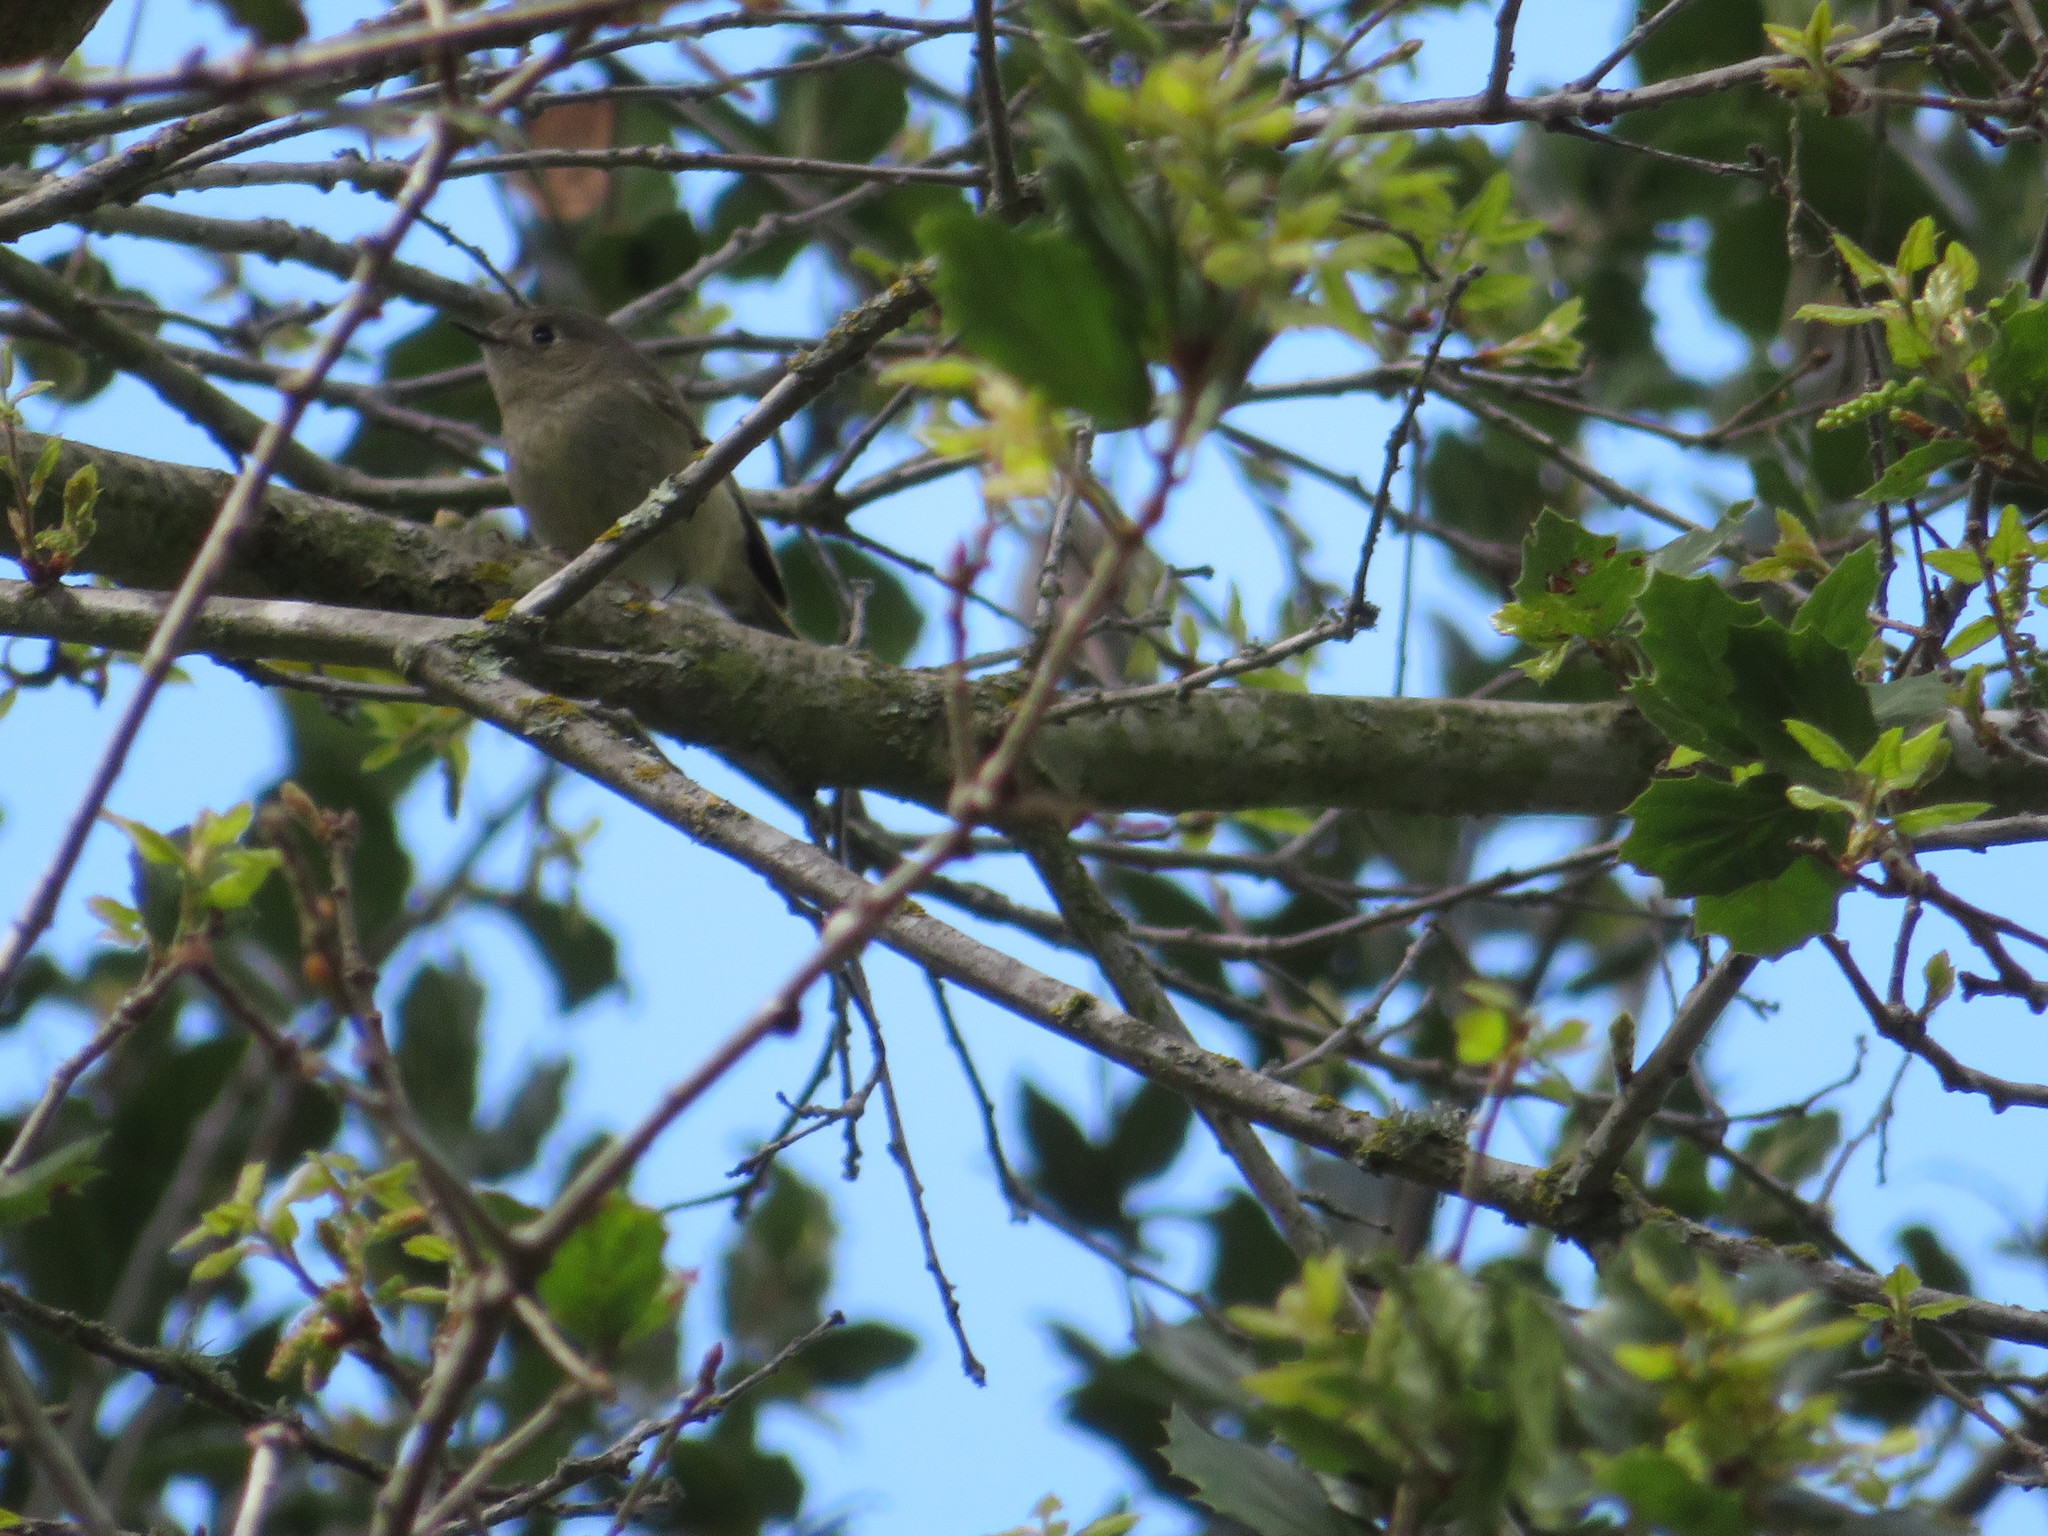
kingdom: Animalia
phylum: Chordata
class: Aves
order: Passeriformes
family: Regulidae
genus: Regulus
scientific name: Regulus calendula
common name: Ruby-crowned kinglet
